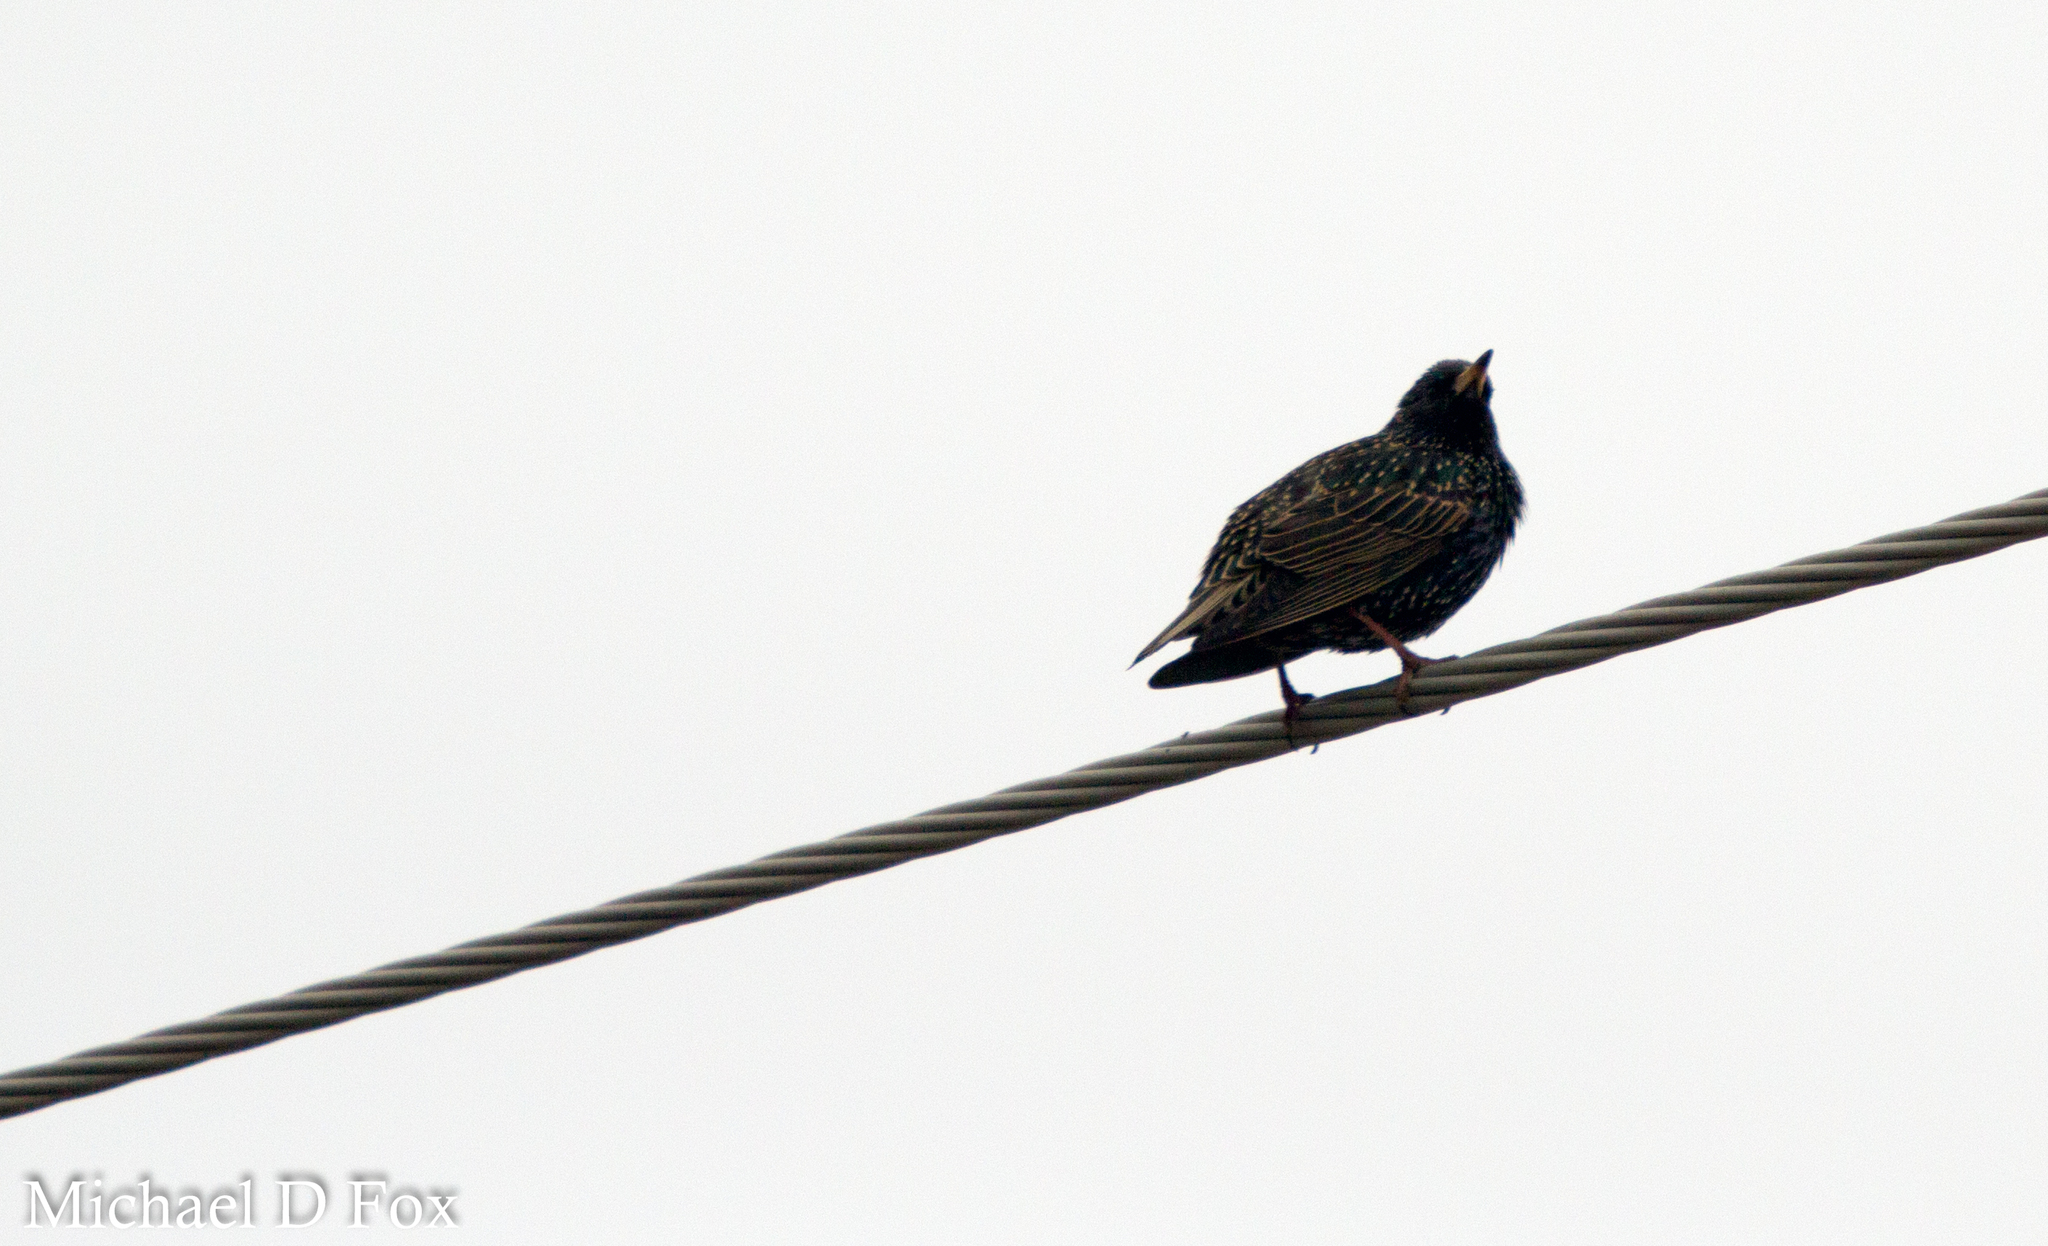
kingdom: Animalia
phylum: Chordata
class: Aves
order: Passeriformes
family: Sturnidae
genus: Sturnus
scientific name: Sturnus vulgaris
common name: Common starling
